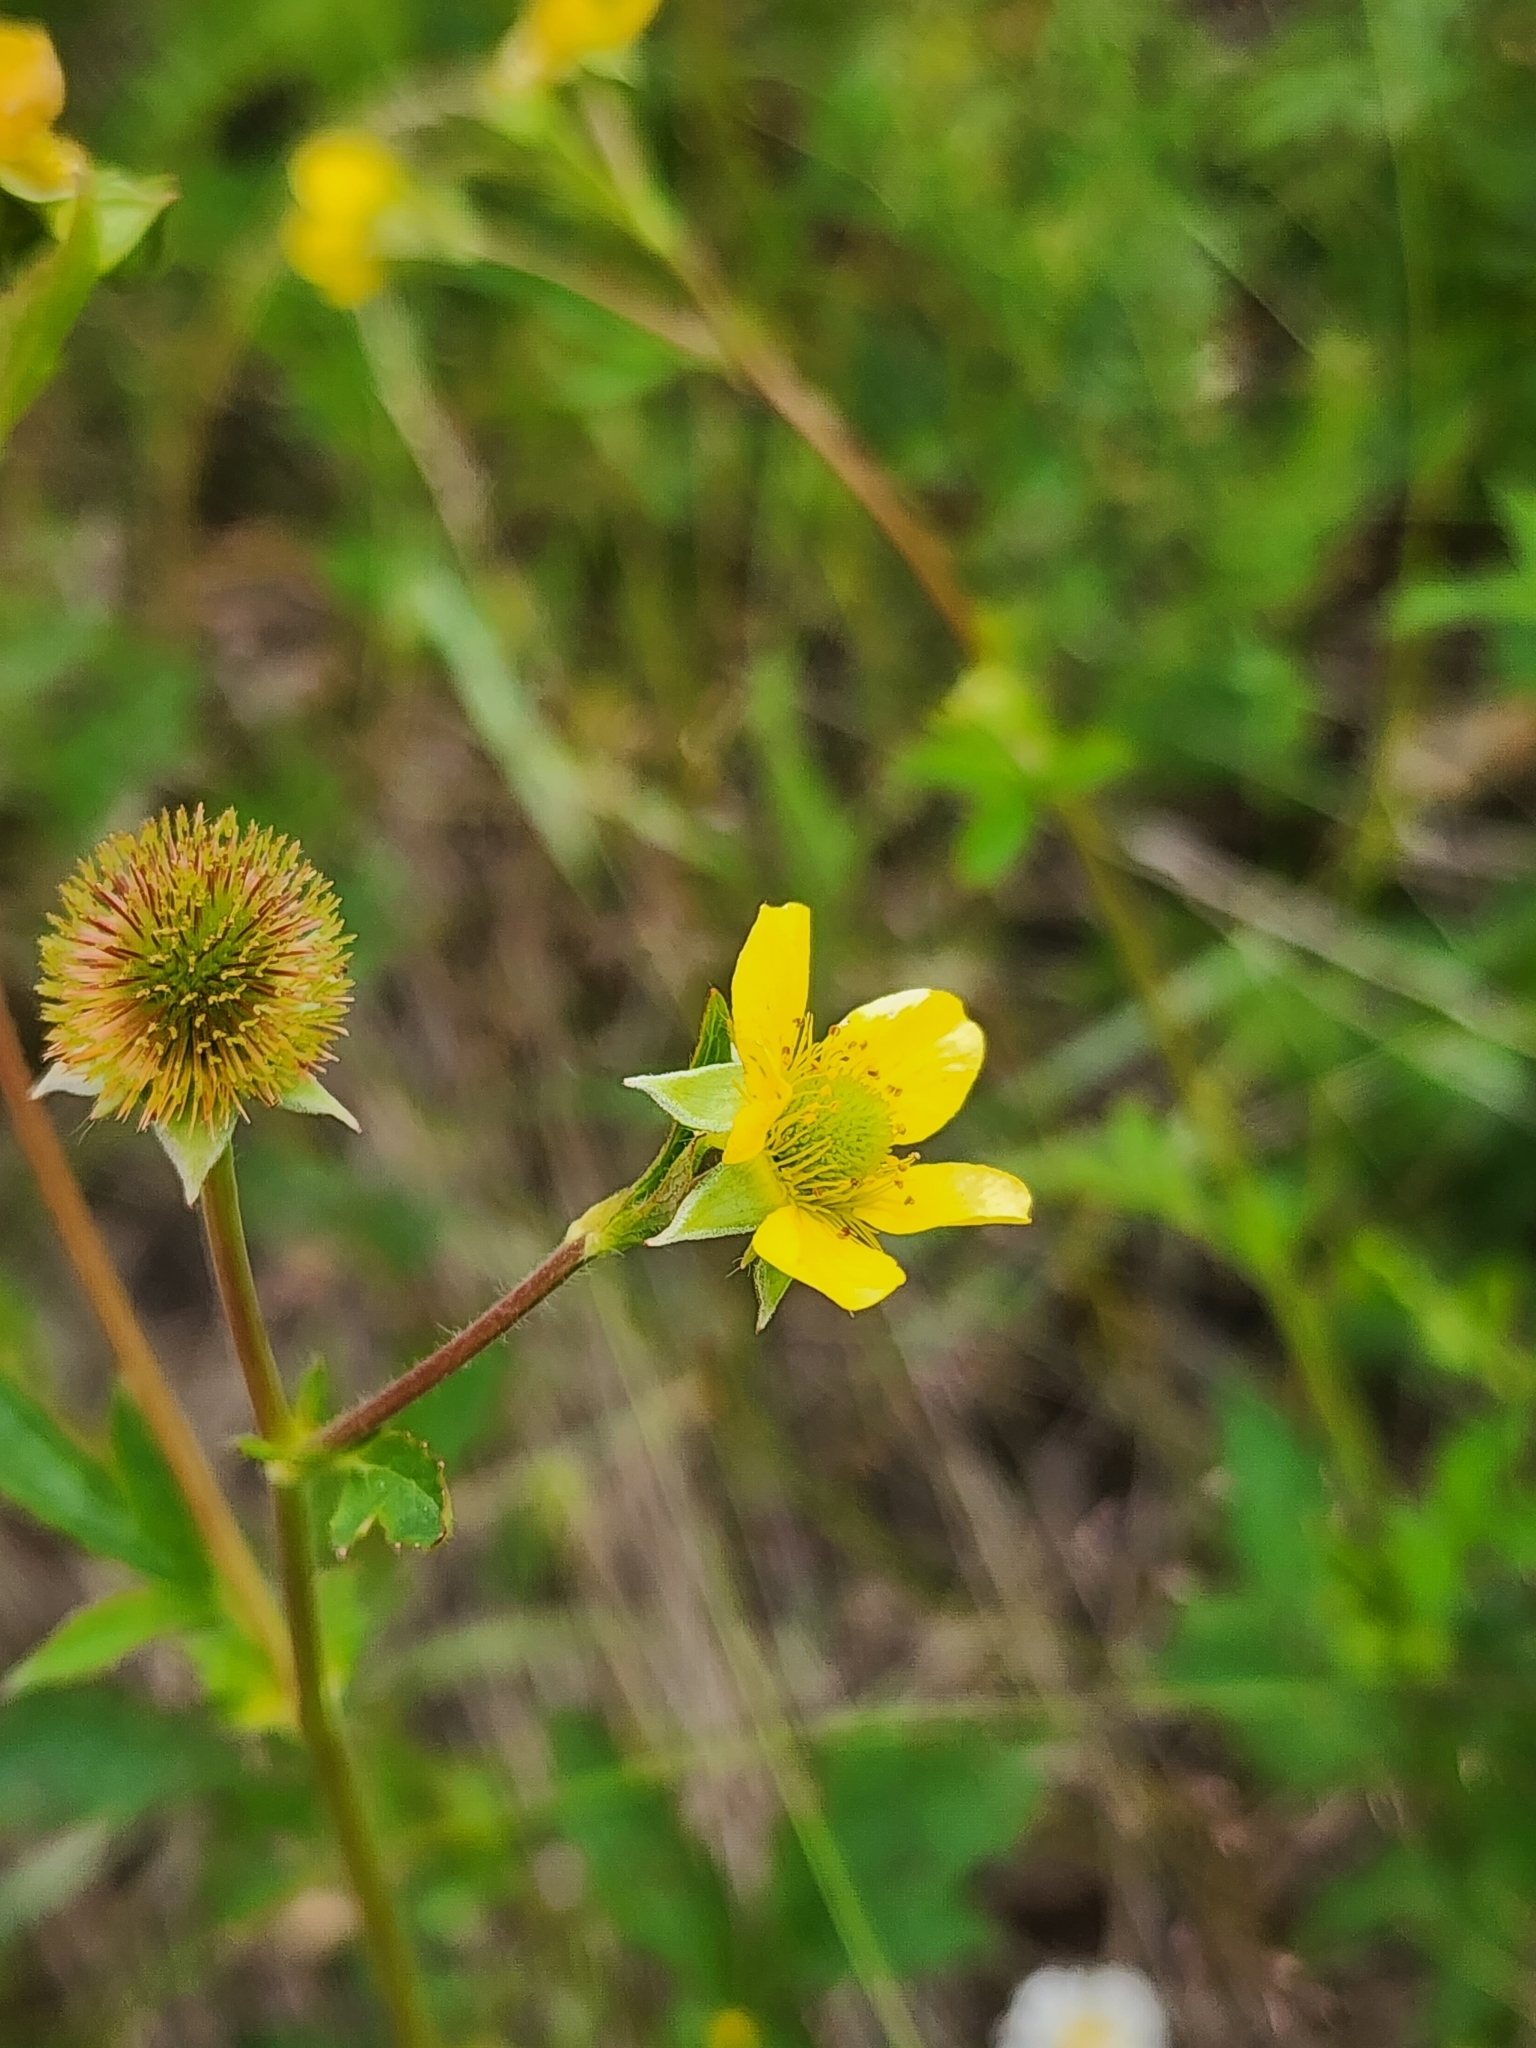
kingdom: Plantae
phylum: Tracheophyta
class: Magnoliopsida
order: Rosales
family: Rosaceae
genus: Geum
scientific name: Geum aleppicum
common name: Yellow avens
